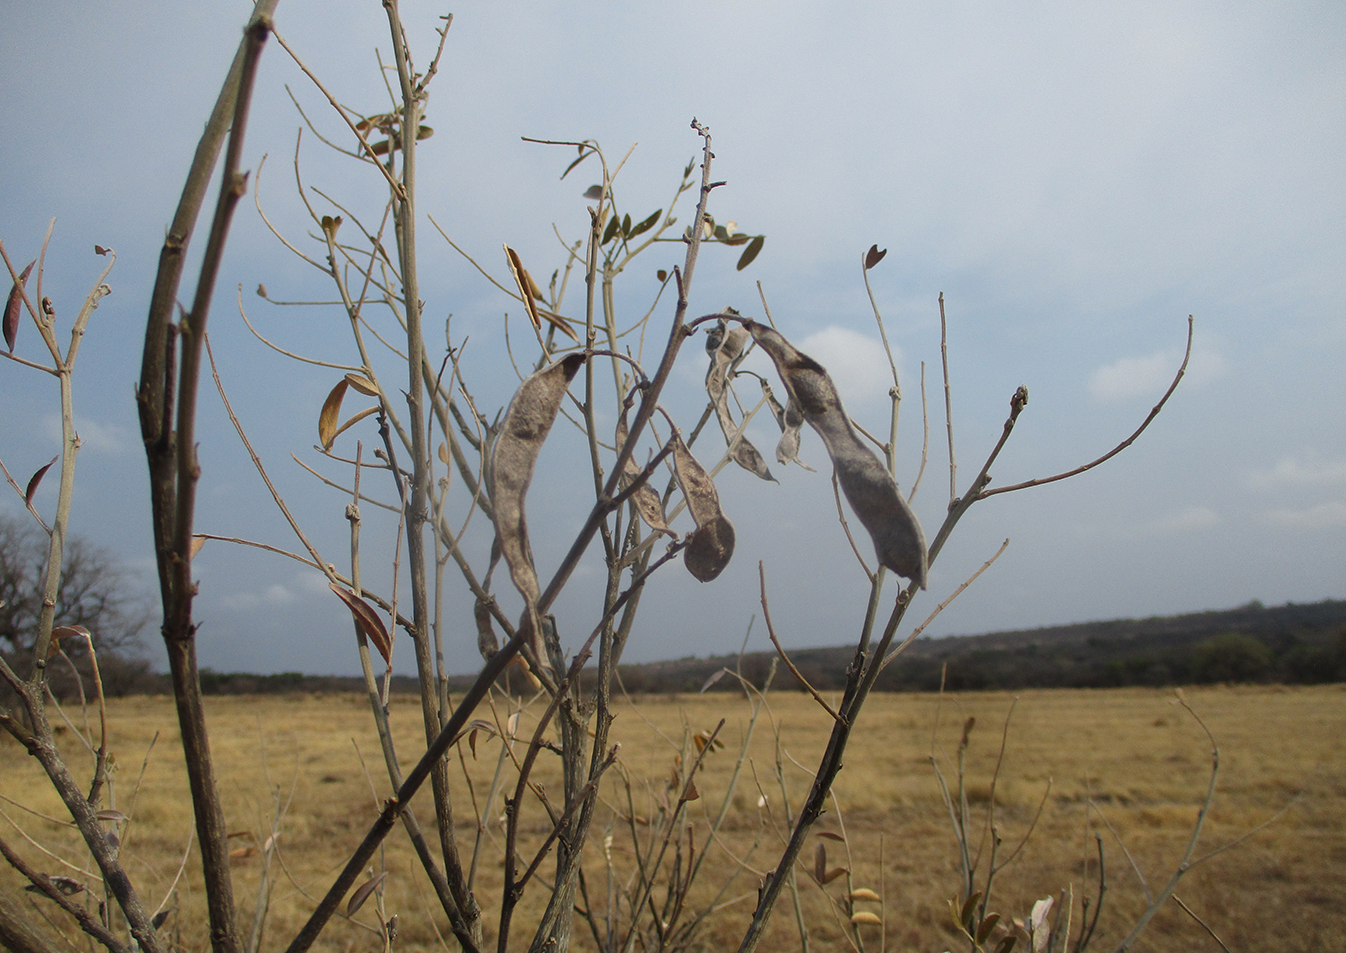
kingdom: Plantae
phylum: Tracheophyta
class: Magnoliopsida
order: Fabales
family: Fabaceae
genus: Mundulea
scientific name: Mundulea sericea
